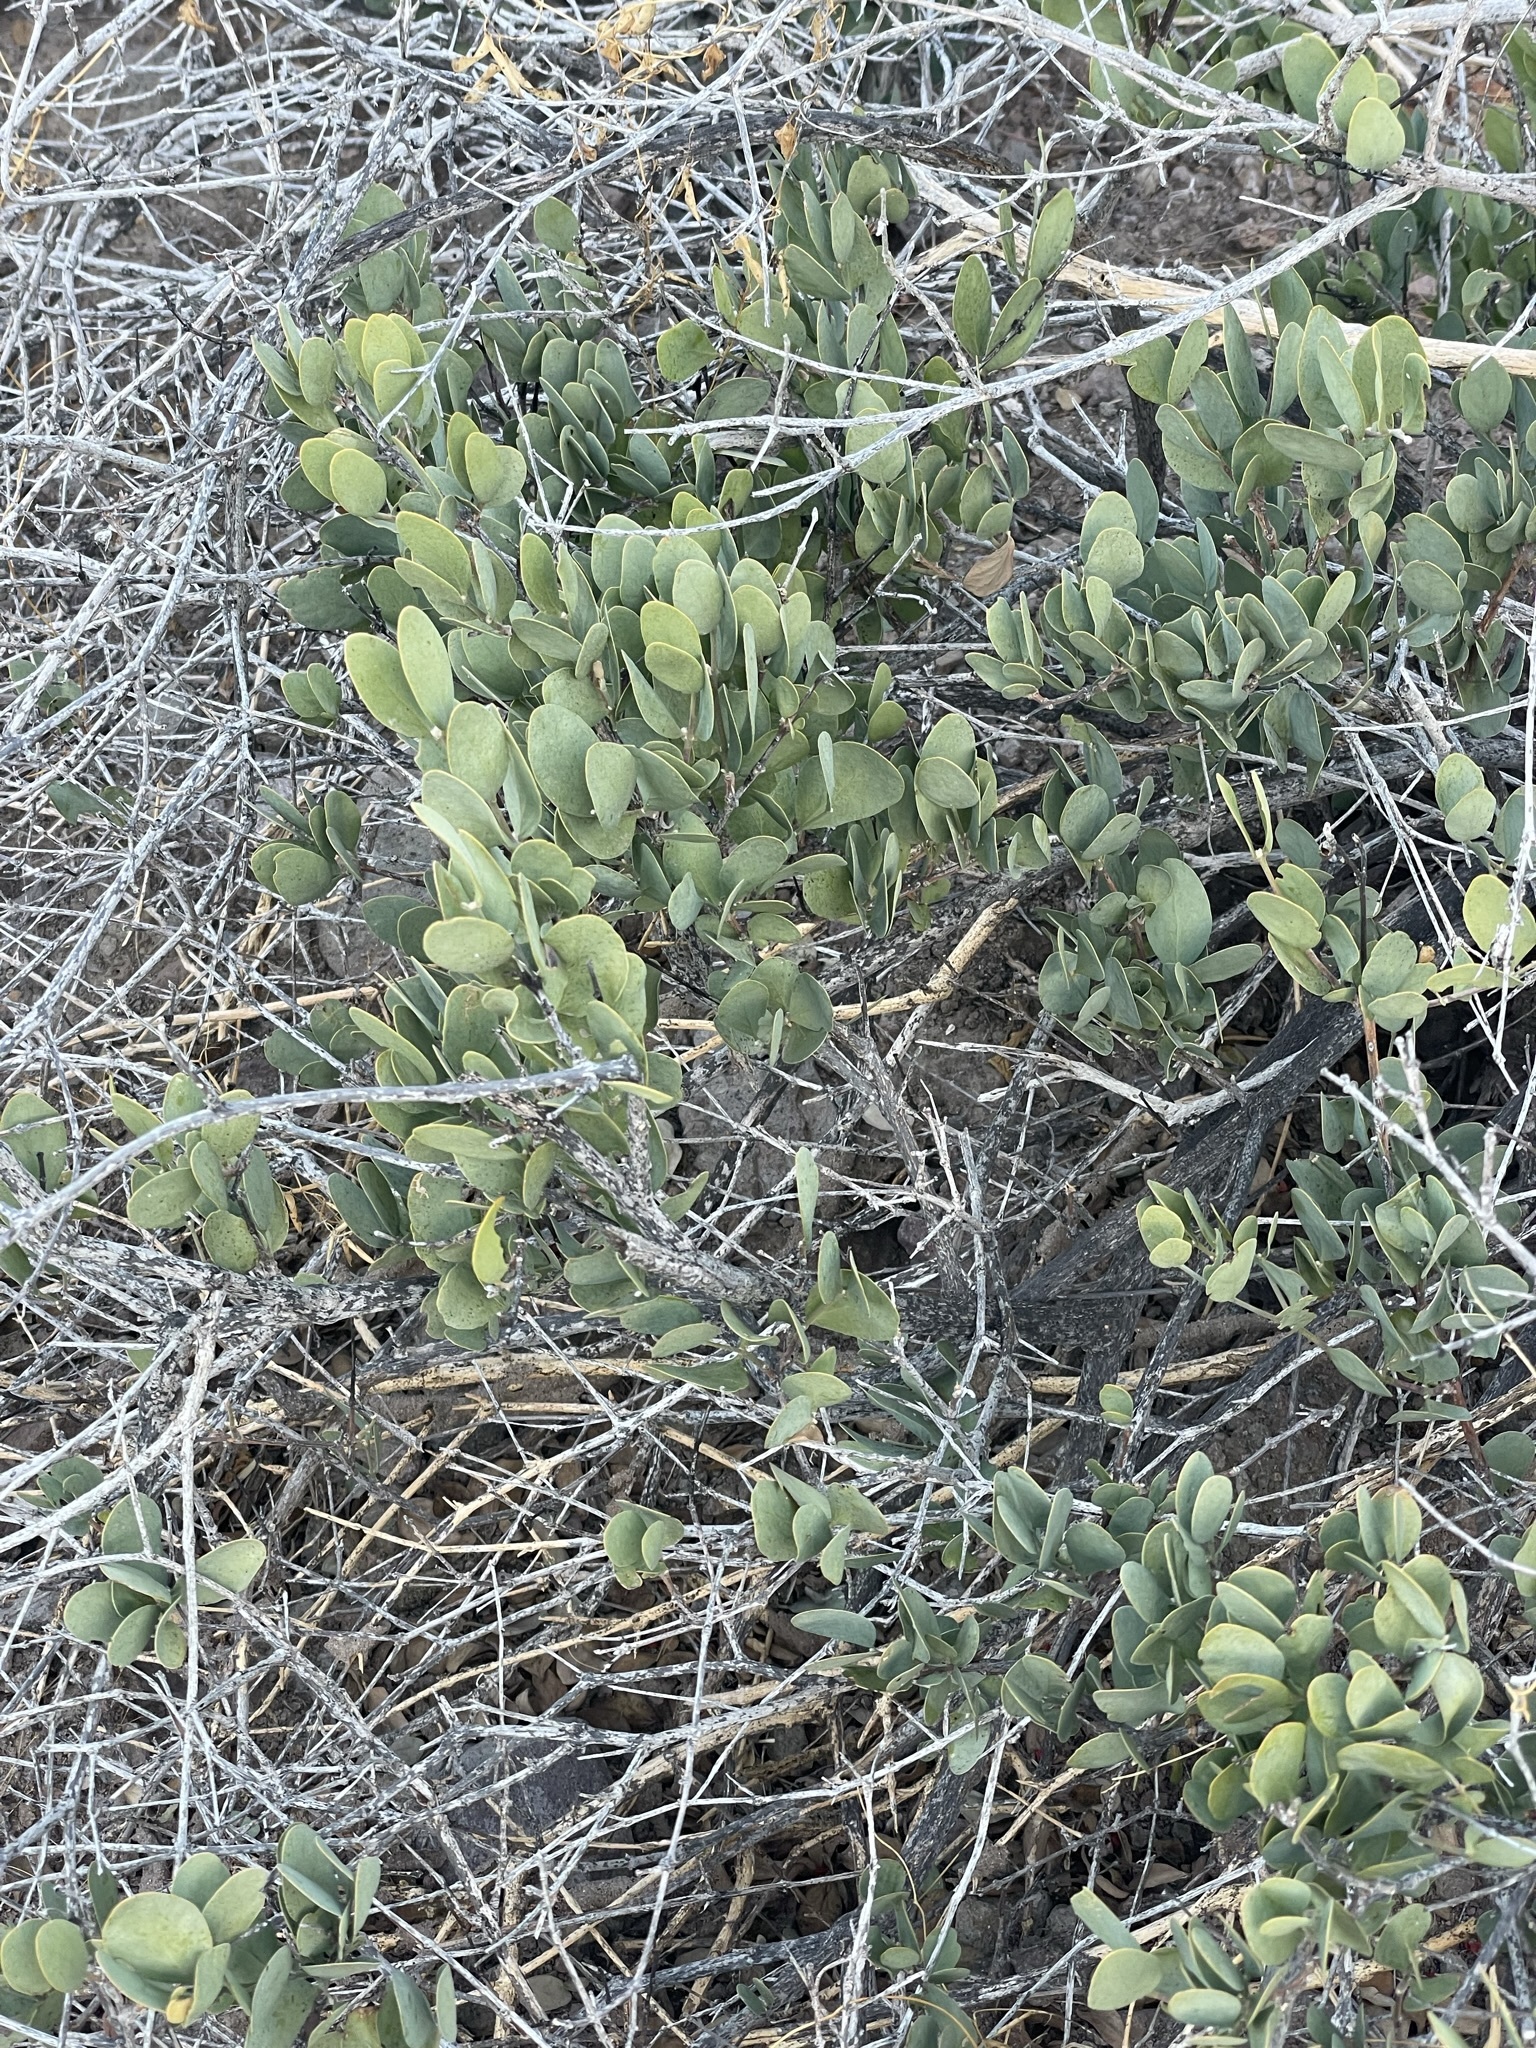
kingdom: Plantae
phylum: Tracheophyta
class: Magnoliopsida
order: Caryophyllales
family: Simmondsiaceae
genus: Simmondsia
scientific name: Simmondsia chinensis
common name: Jojoba
